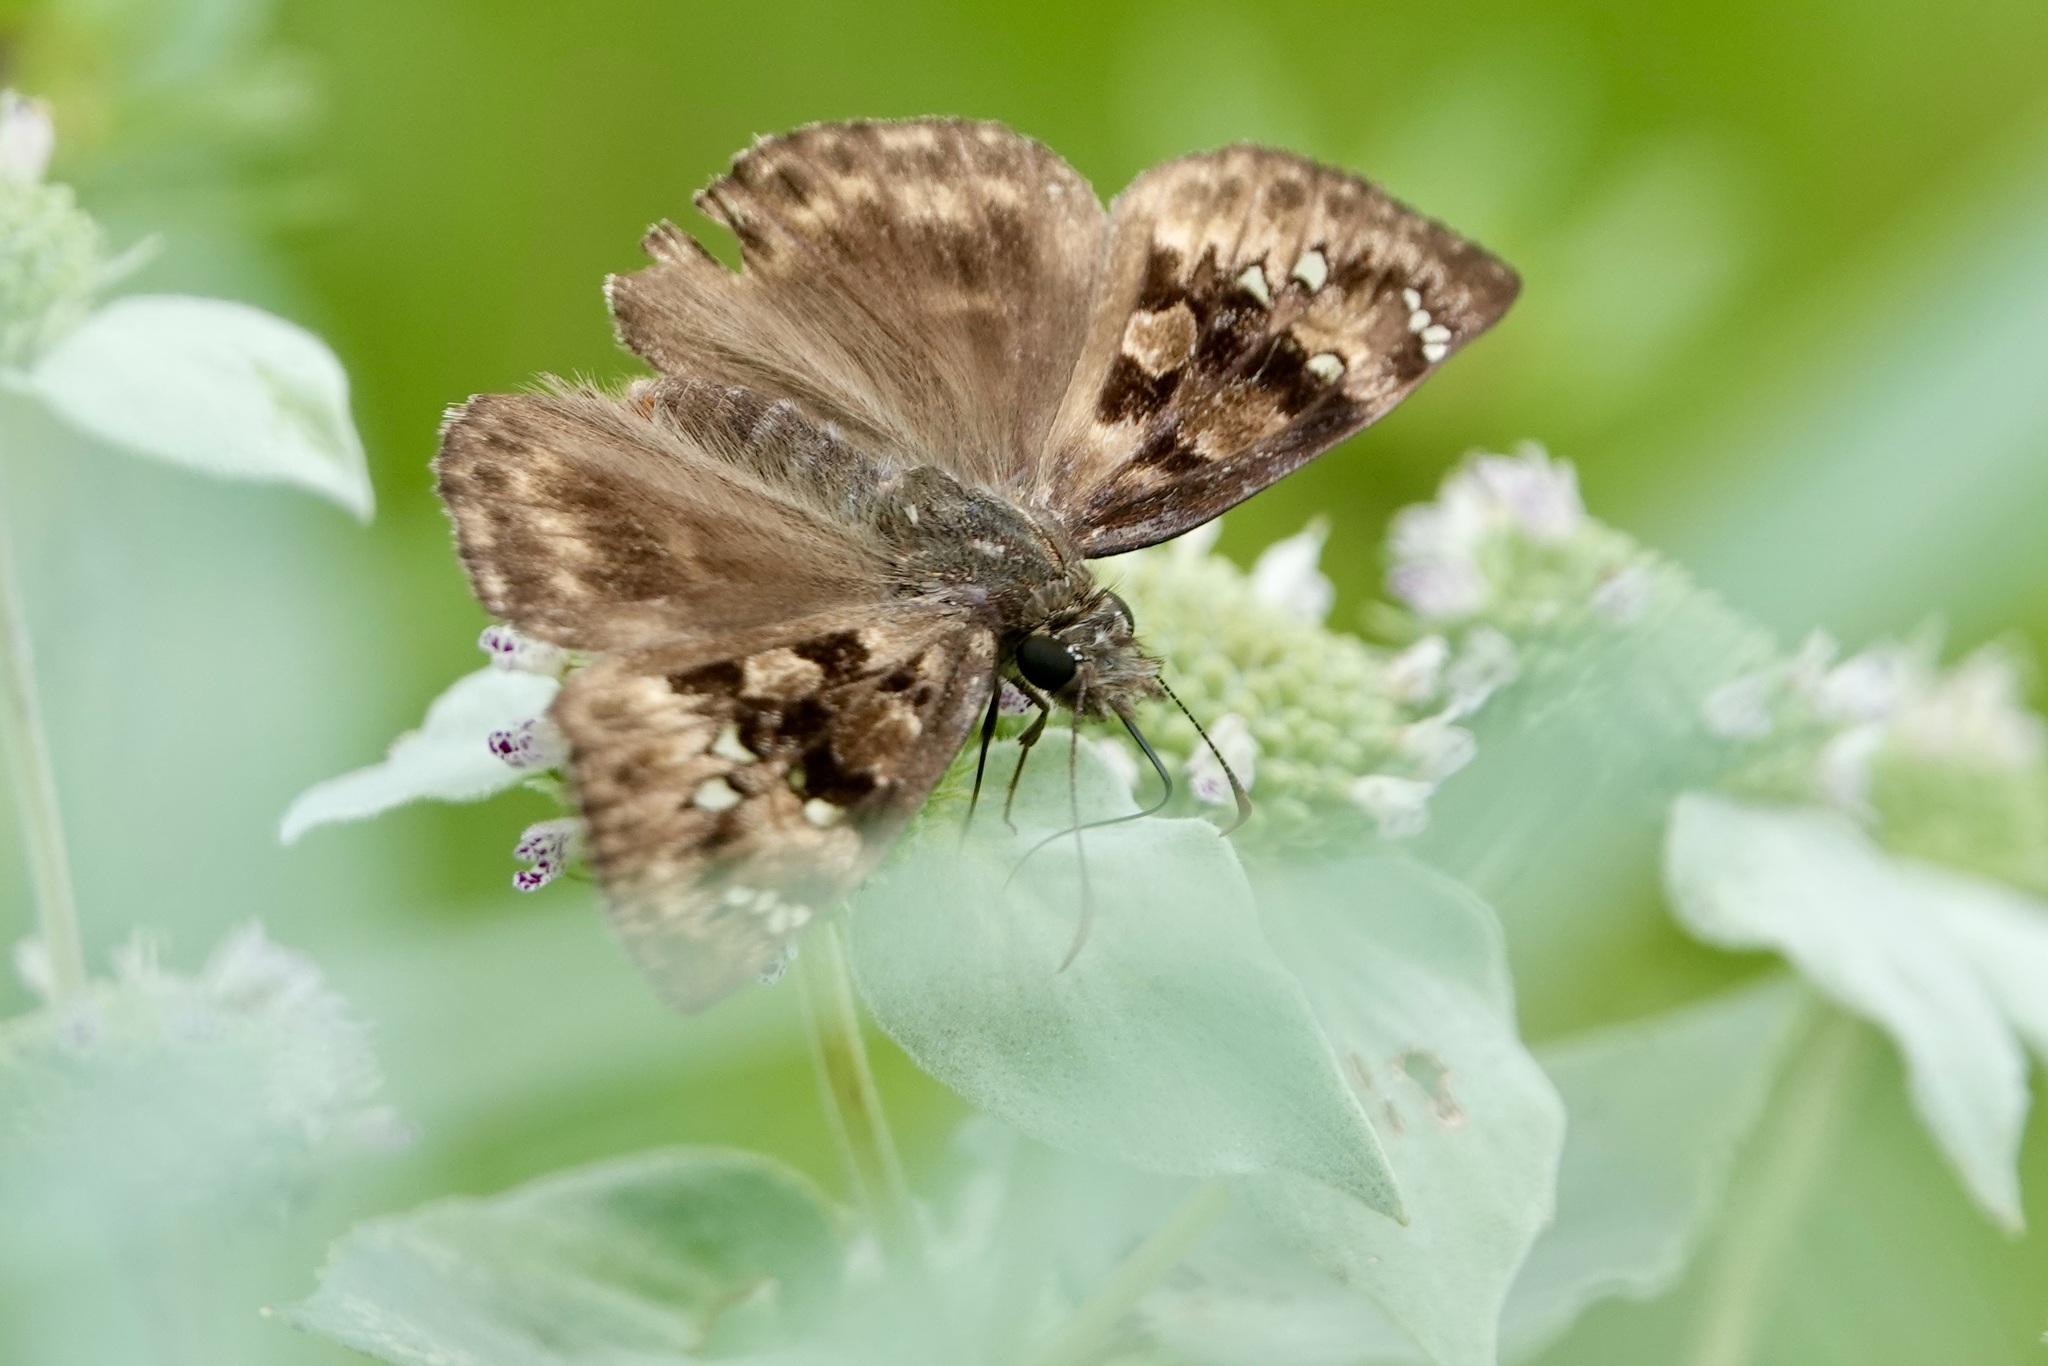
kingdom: Animalia
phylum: Arthropoda
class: Insecta
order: Lepidoptera
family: Hesperiidae
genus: Erynnis
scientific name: Erynnis horatius
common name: Horace's duskywing
